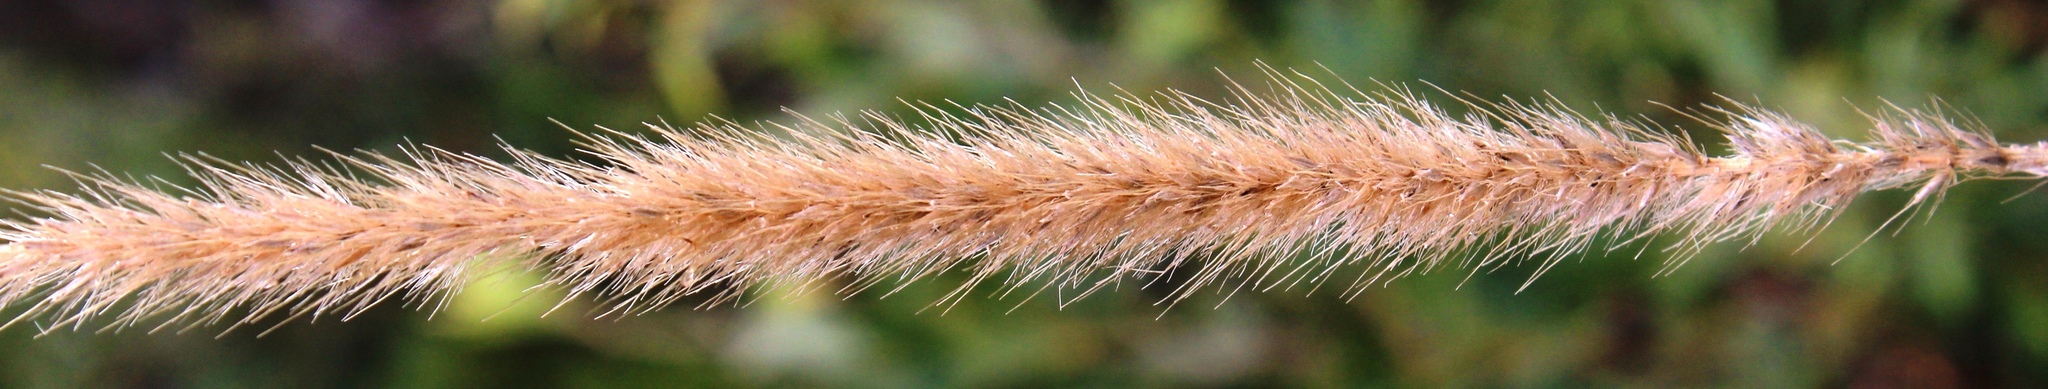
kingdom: Plantae
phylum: Tracheophyta
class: Liliopsida
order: Poales
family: Poaceae
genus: Cenchrus
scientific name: Cenchrus caudatus
